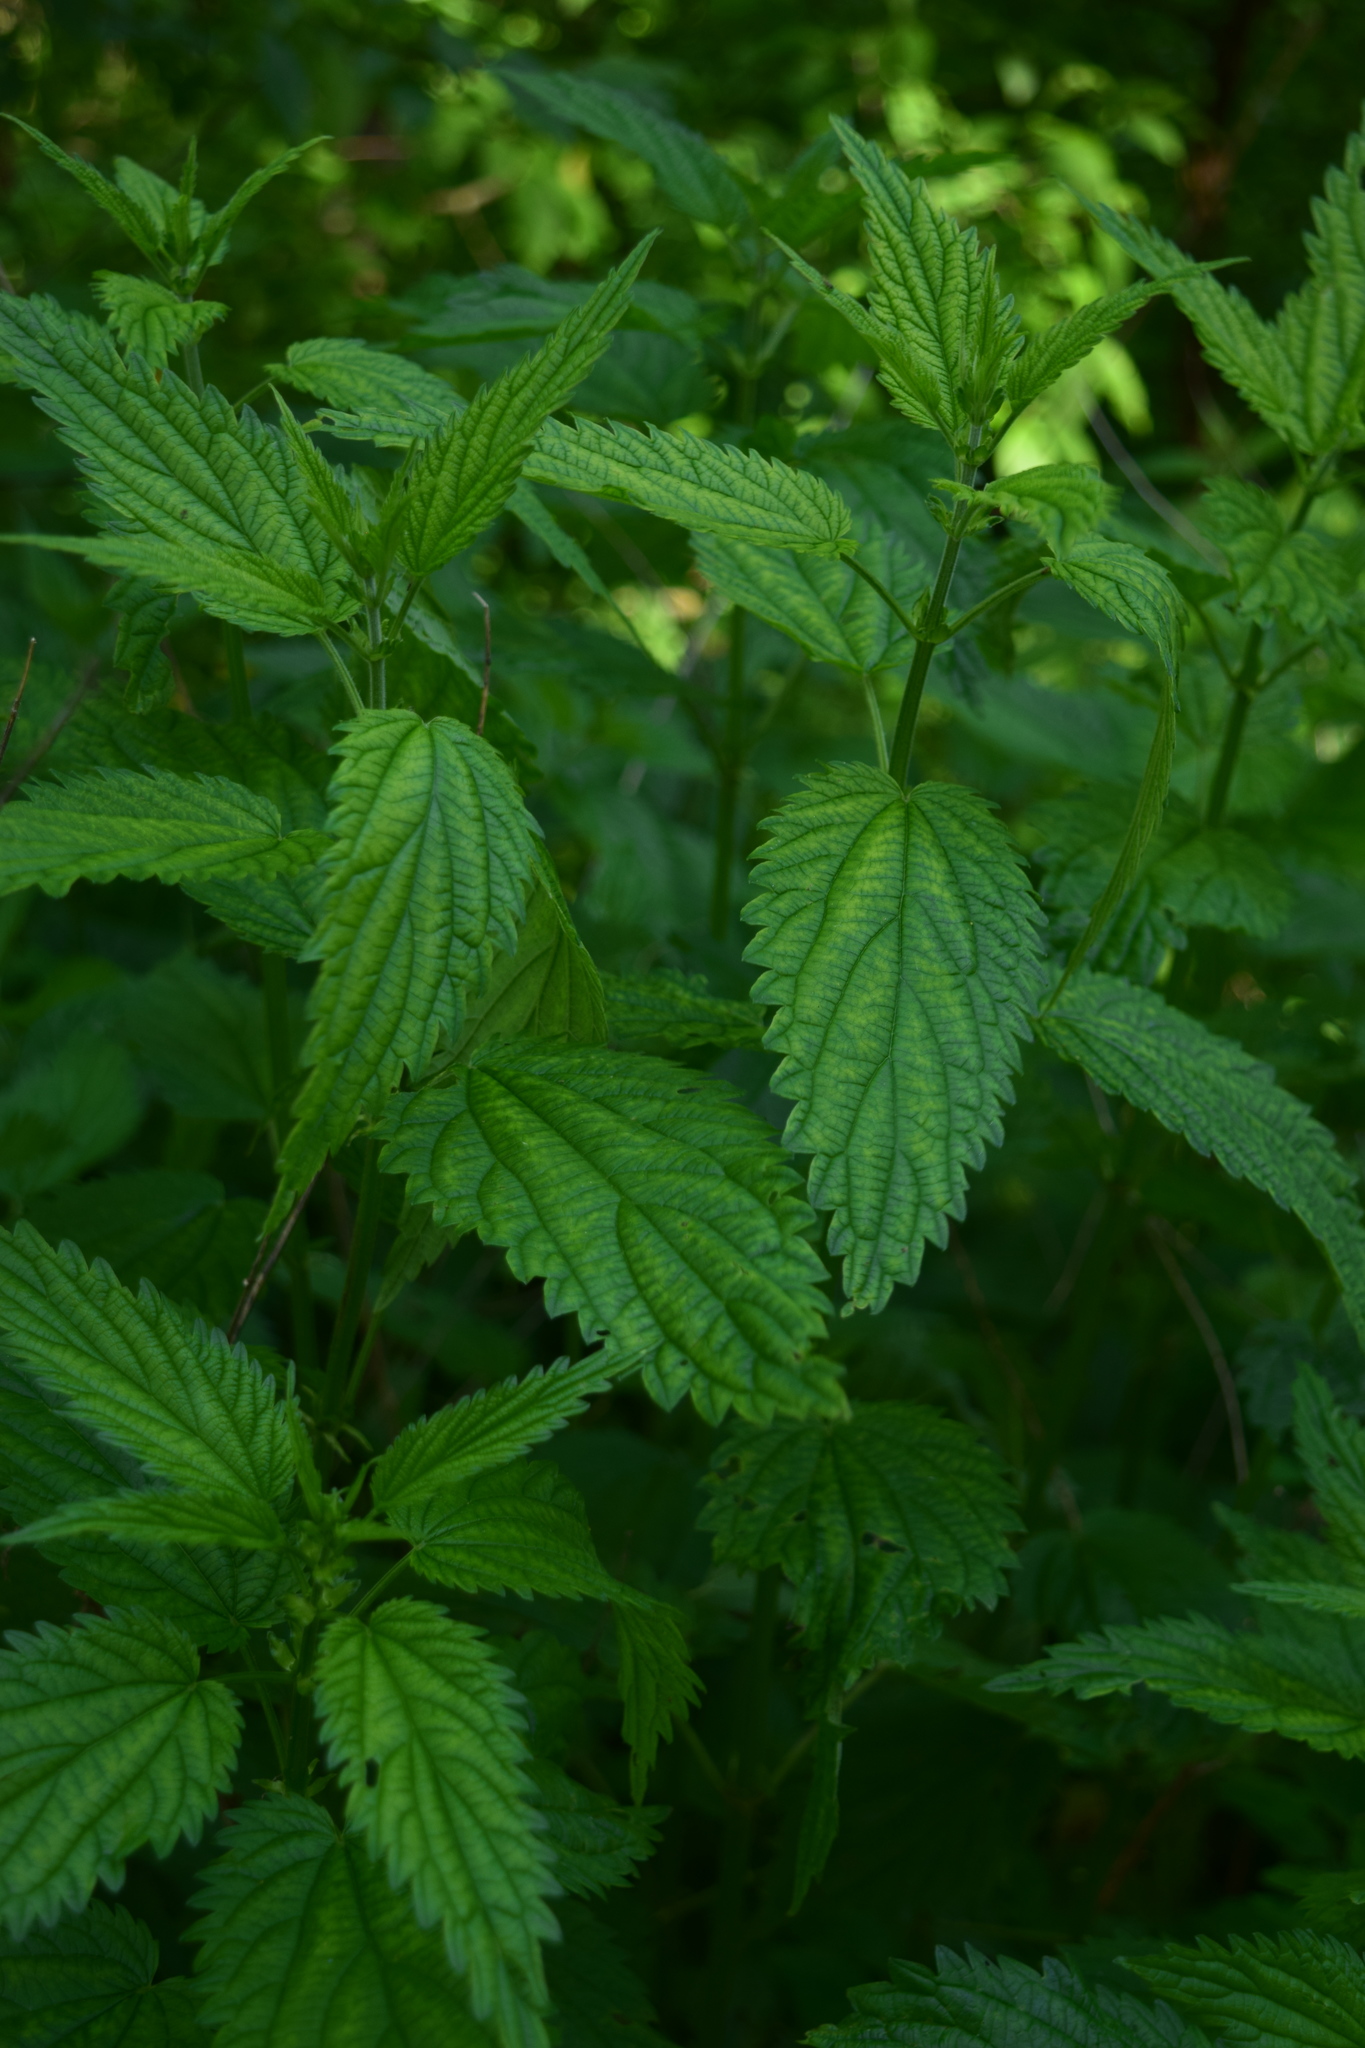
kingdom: Plantae
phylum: Tracheophyta
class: Magnoliopsida
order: Rosales
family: Urticaceae
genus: Urtica
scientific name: Urtica dioica
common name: Common nettle
